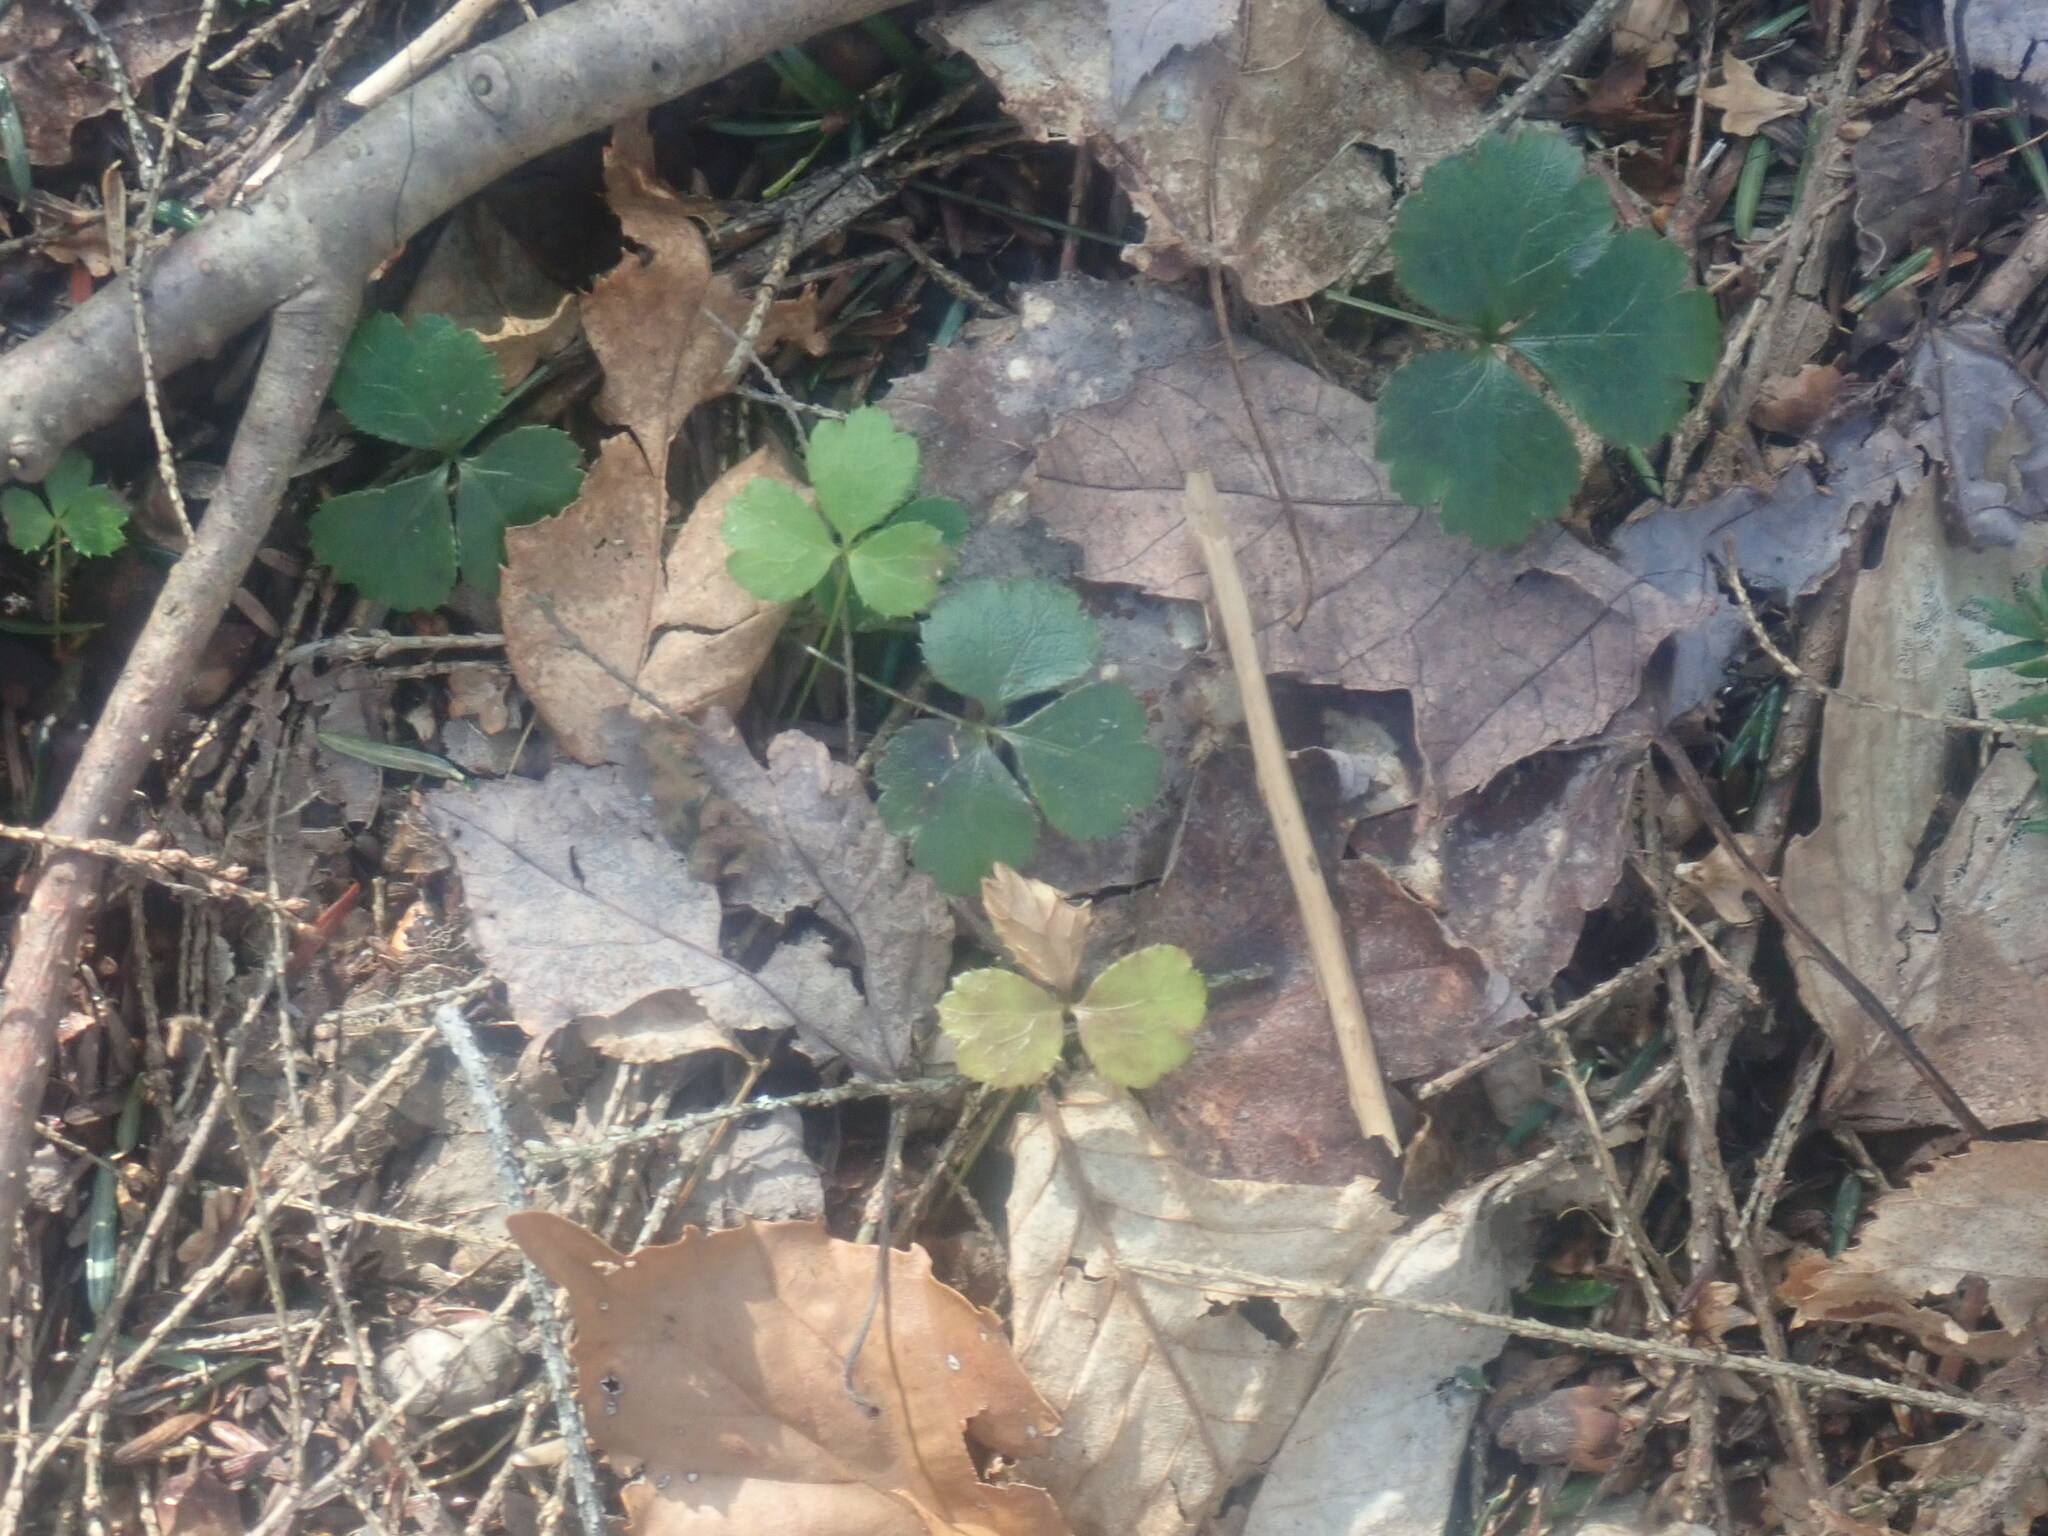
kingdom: Plantae
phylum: Tracheophyta
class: Magnoliopsida
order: Ranunculales
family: Ranunculaceae
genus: Coptis
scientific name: Coptis trifolia
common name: Canker-root
